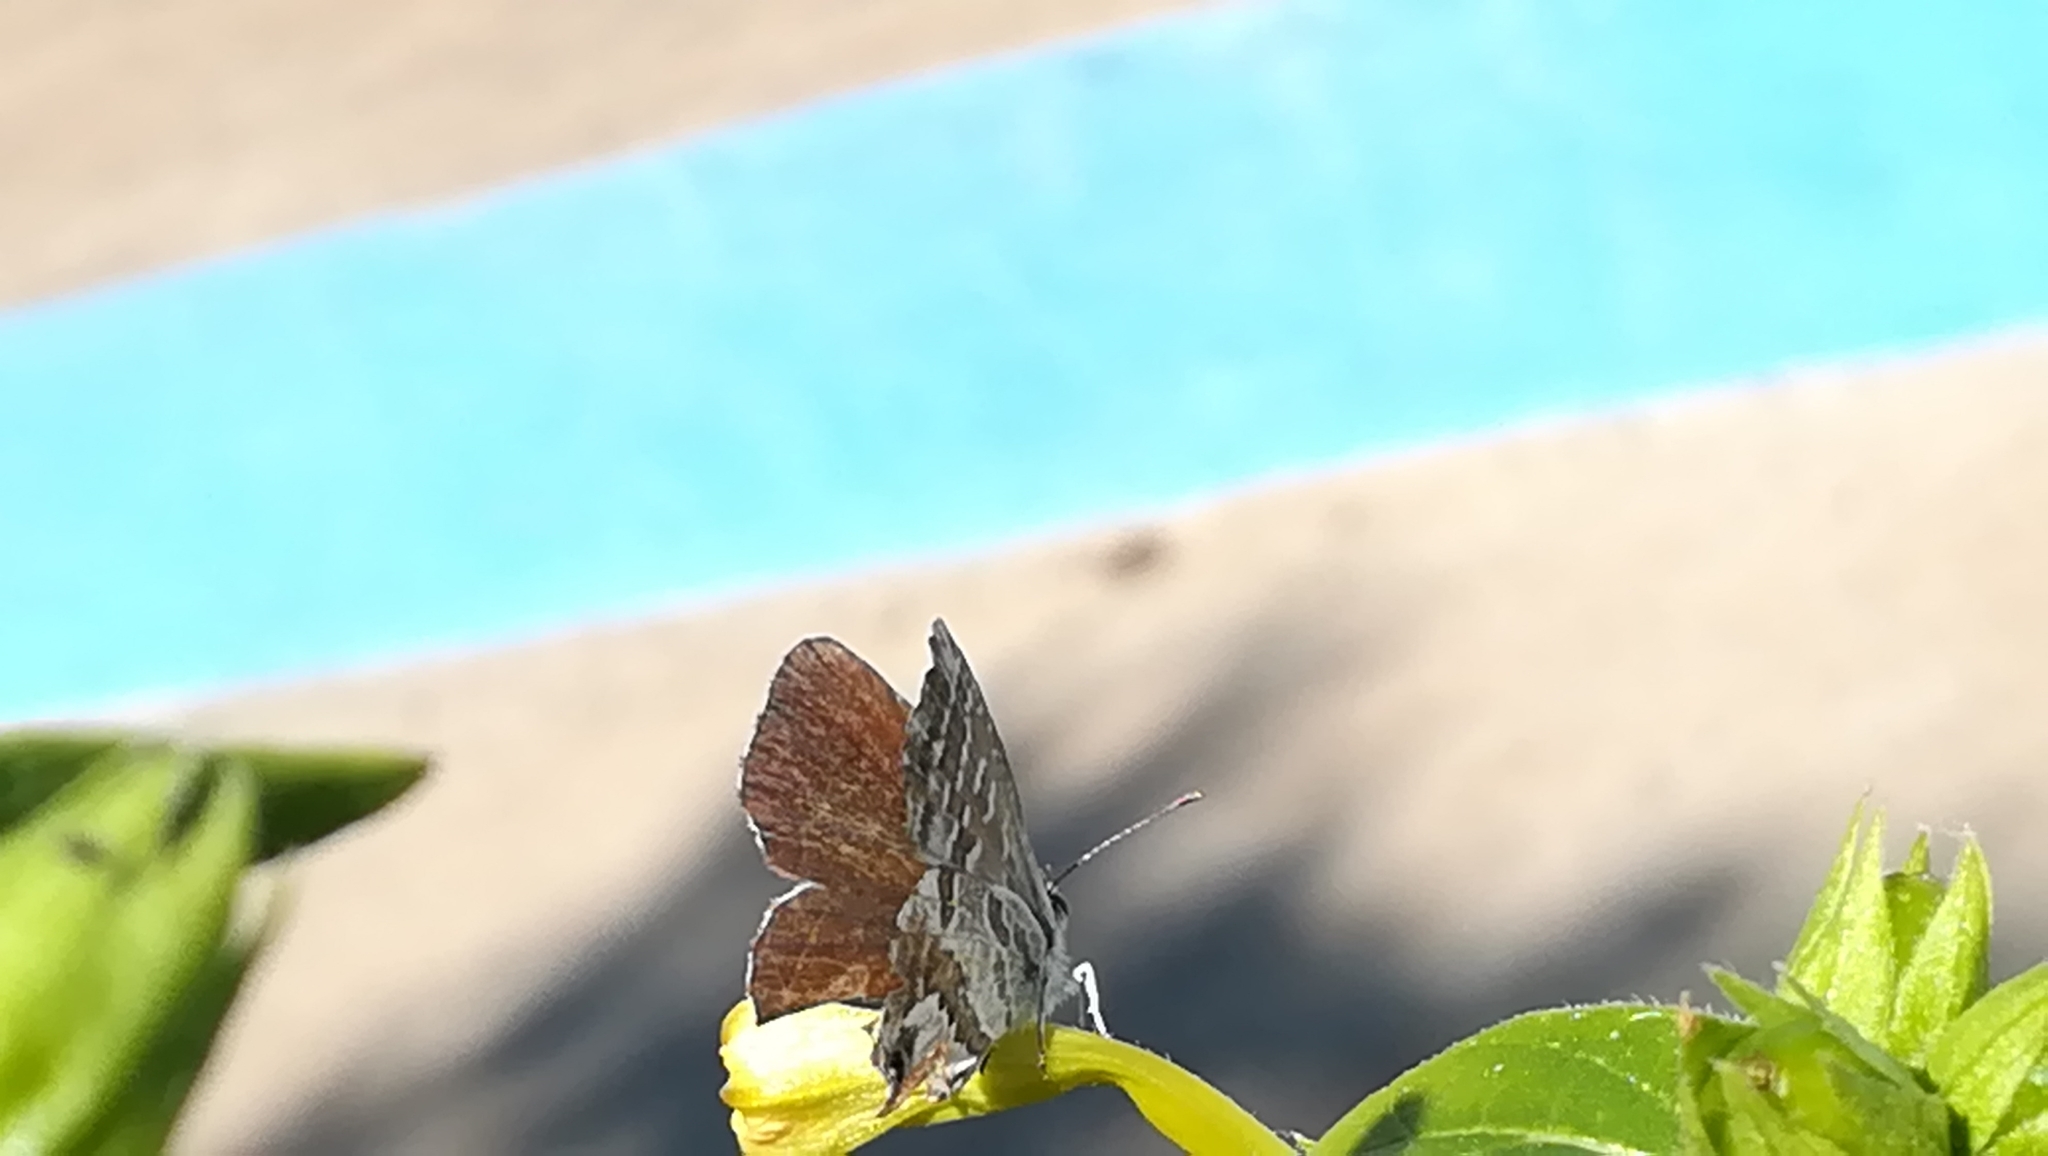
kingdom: Animalia
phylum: Arthropoda
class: Insecta
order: Lepidoptera
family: Lycaenidae
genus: Cacyreus
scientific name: Cacyreus marshalli
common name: Geranium bronze
